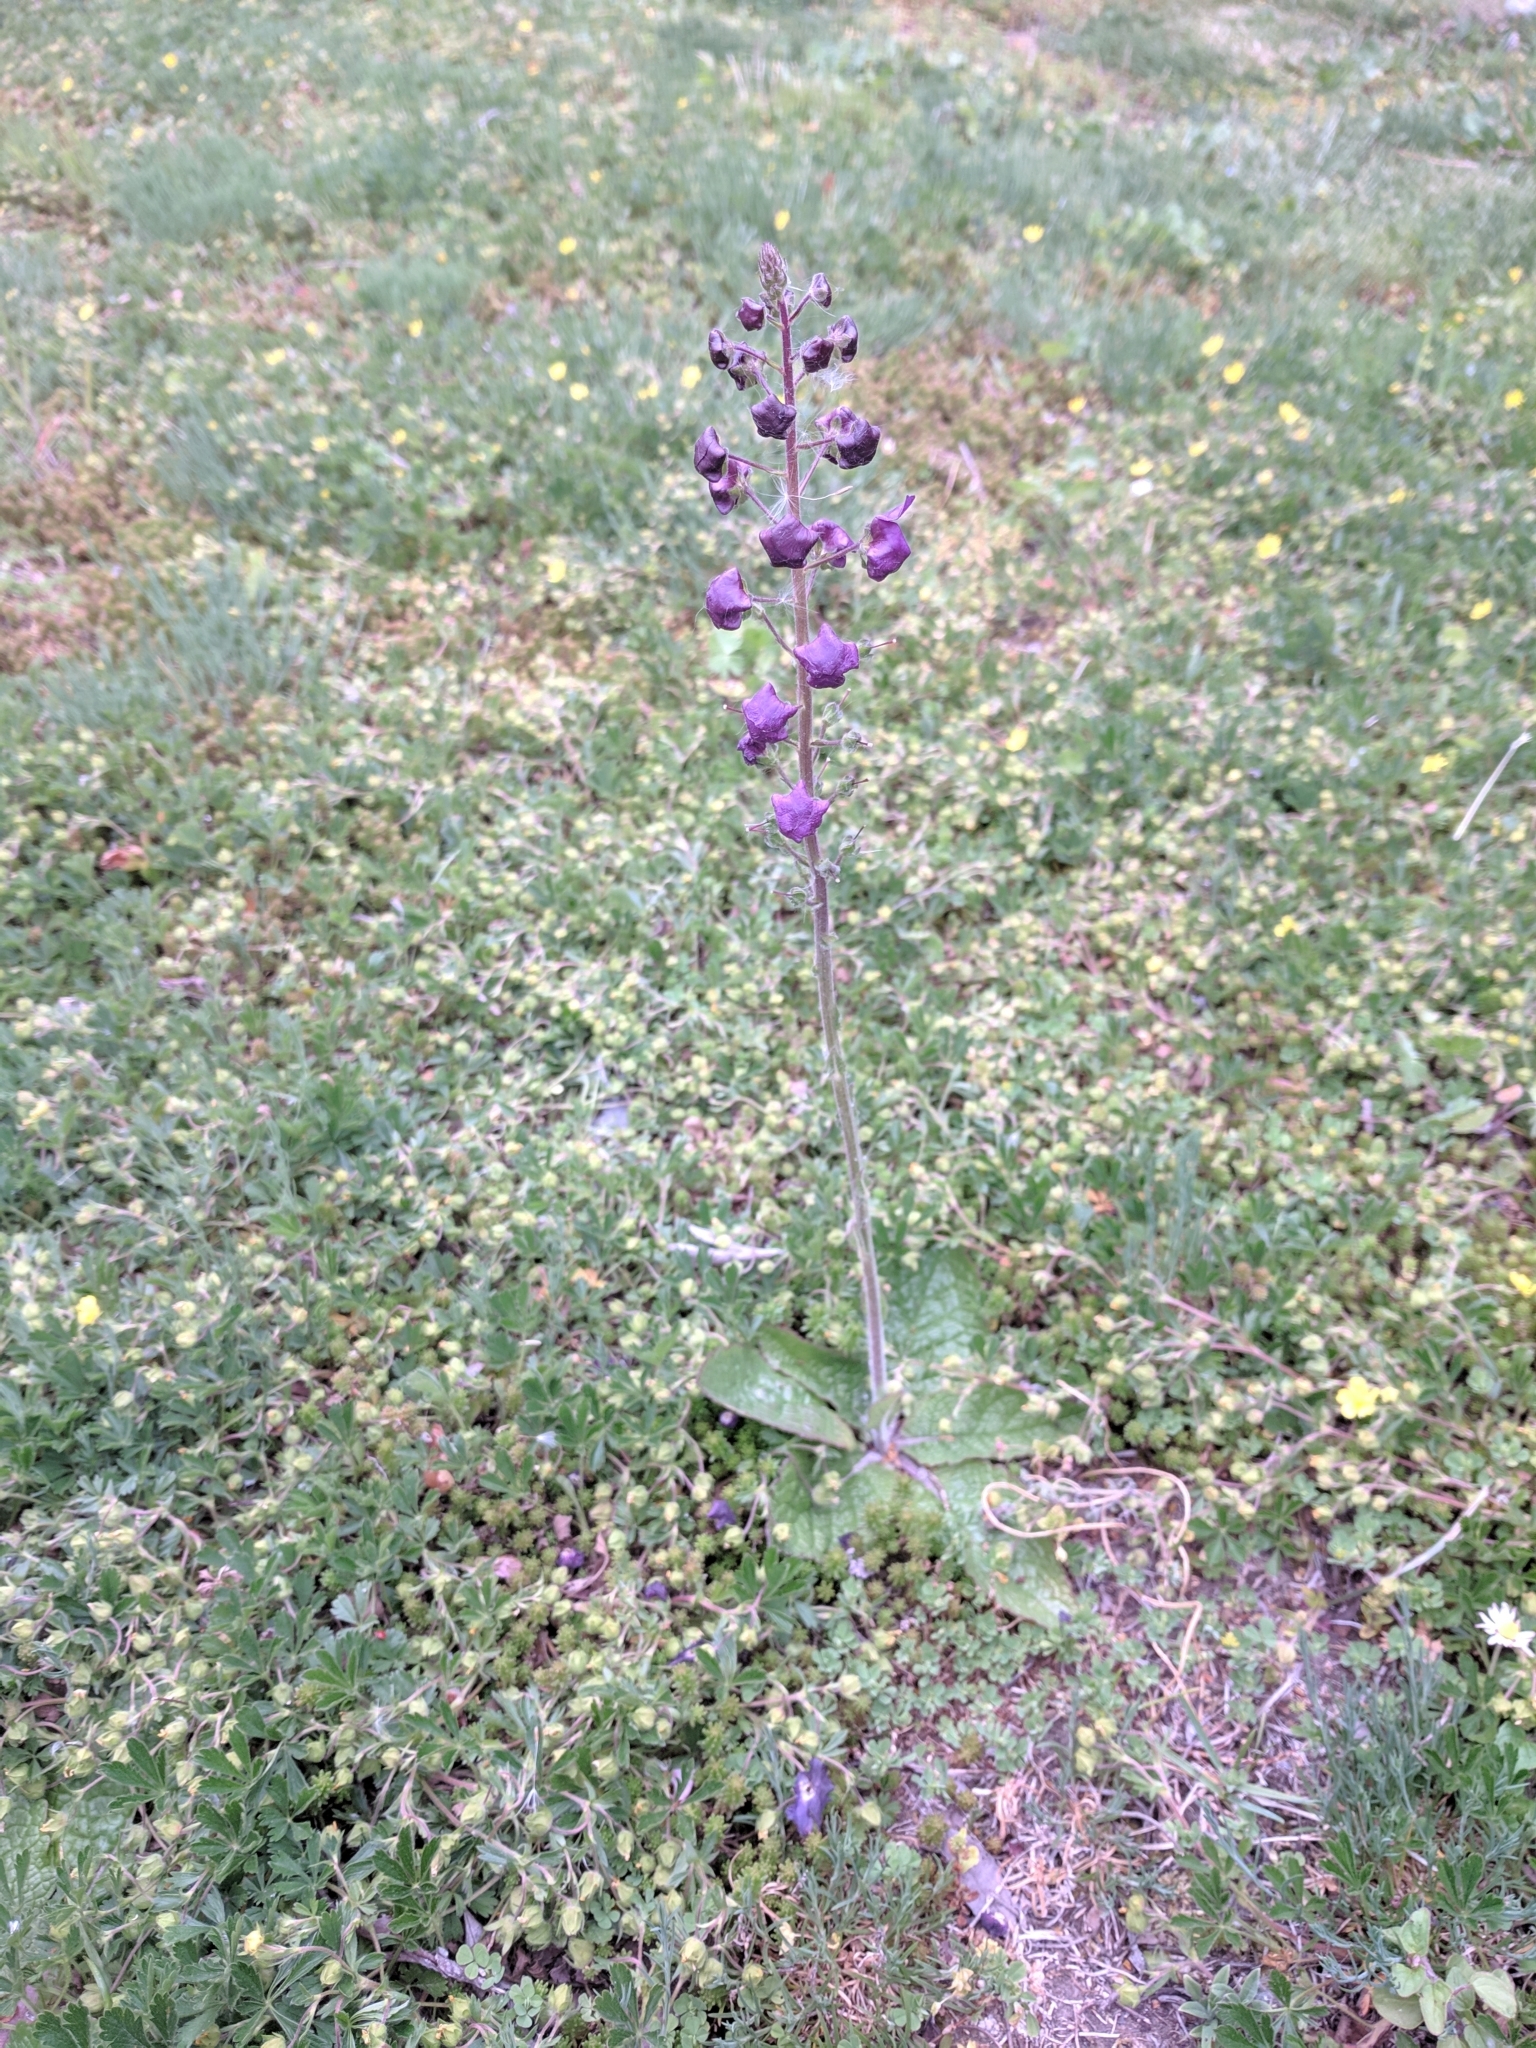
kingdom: Plantae
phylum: Tracheophyta
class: Magnoliopsida
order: Lamiales
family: Scrophulariaceae
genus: Verbascum
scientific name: Verbascum phoeniceum
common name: Purple mullein
